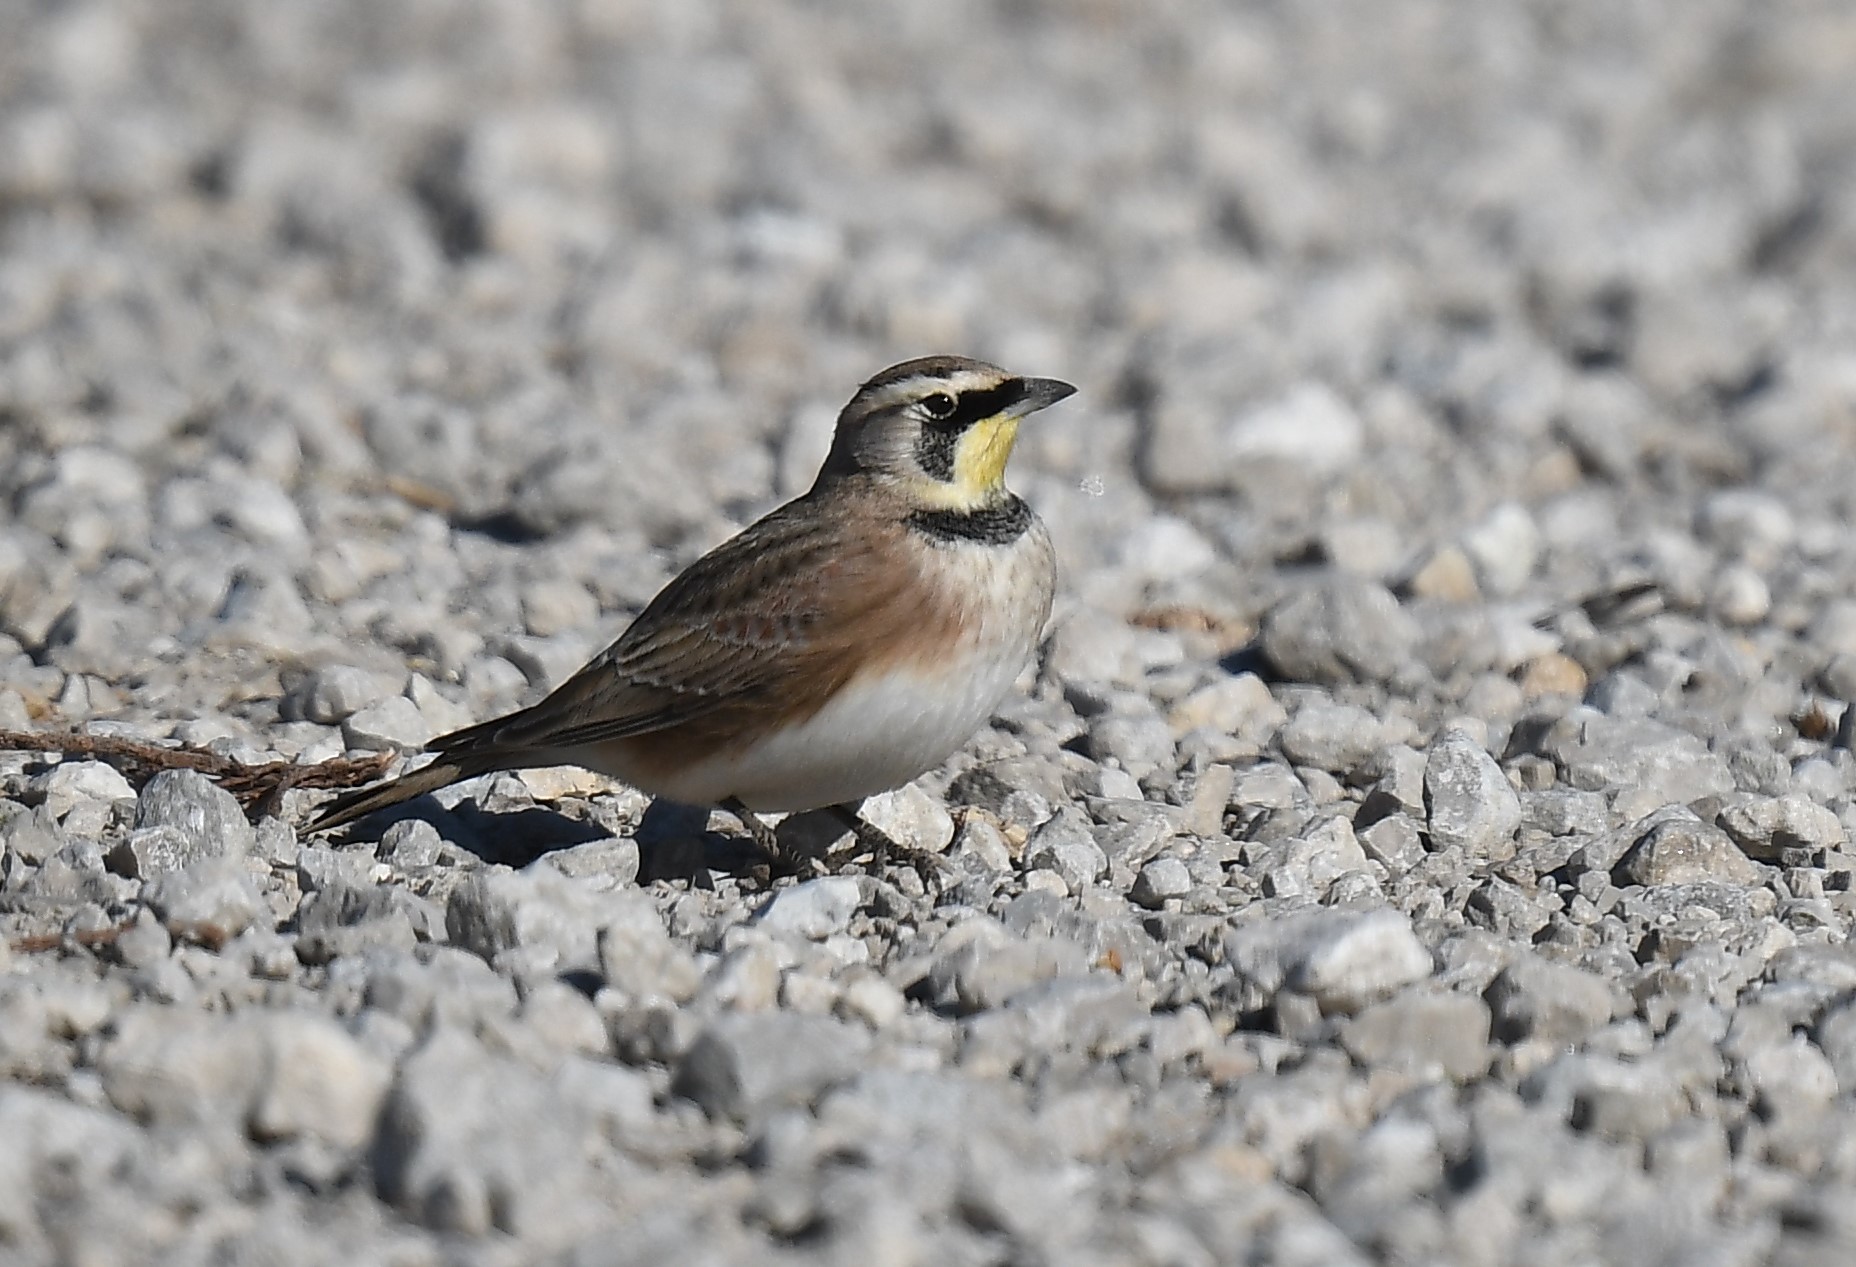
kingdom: Animalia
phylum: Chordata
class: Aves
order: Passeriformes
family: Alaudidae
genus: Eremophila
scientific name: Eremophila alpestris
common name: Horned lark
